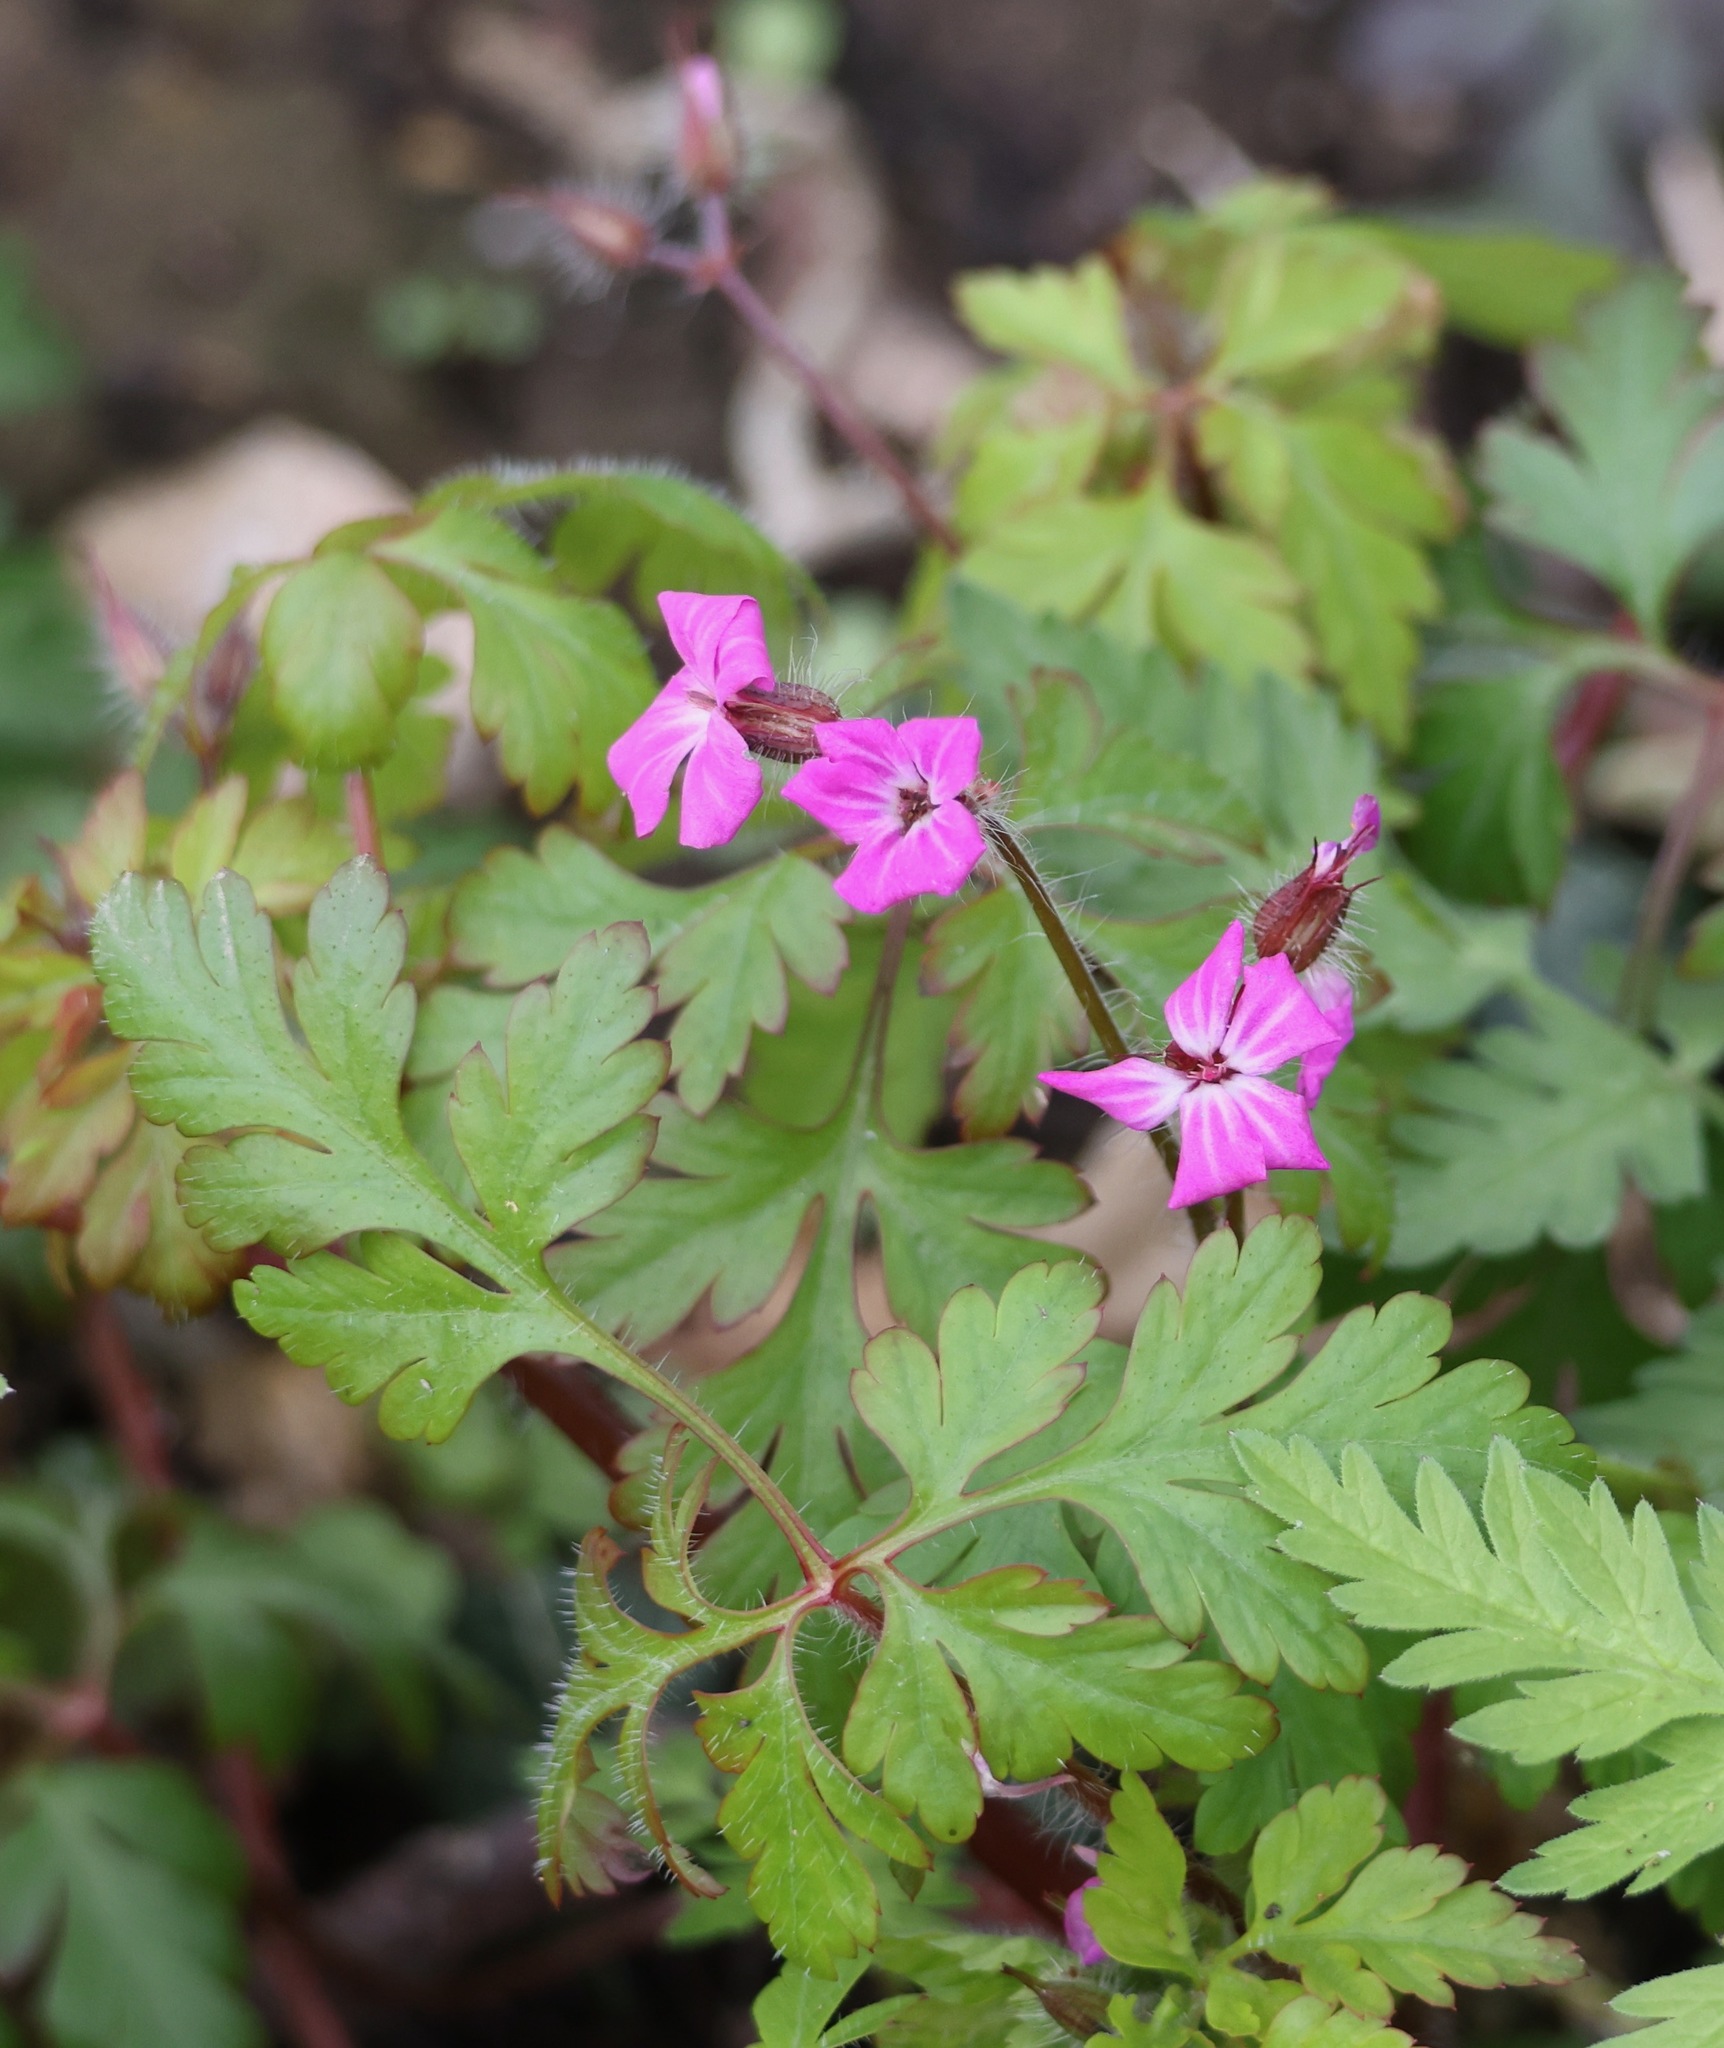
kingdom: Plantae
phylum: Tracheophyta
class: Magnoliopsida
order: Geraniales
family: Geraniaceae
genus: Geranium
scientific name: Geranium robertianum
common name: Herb-robert
